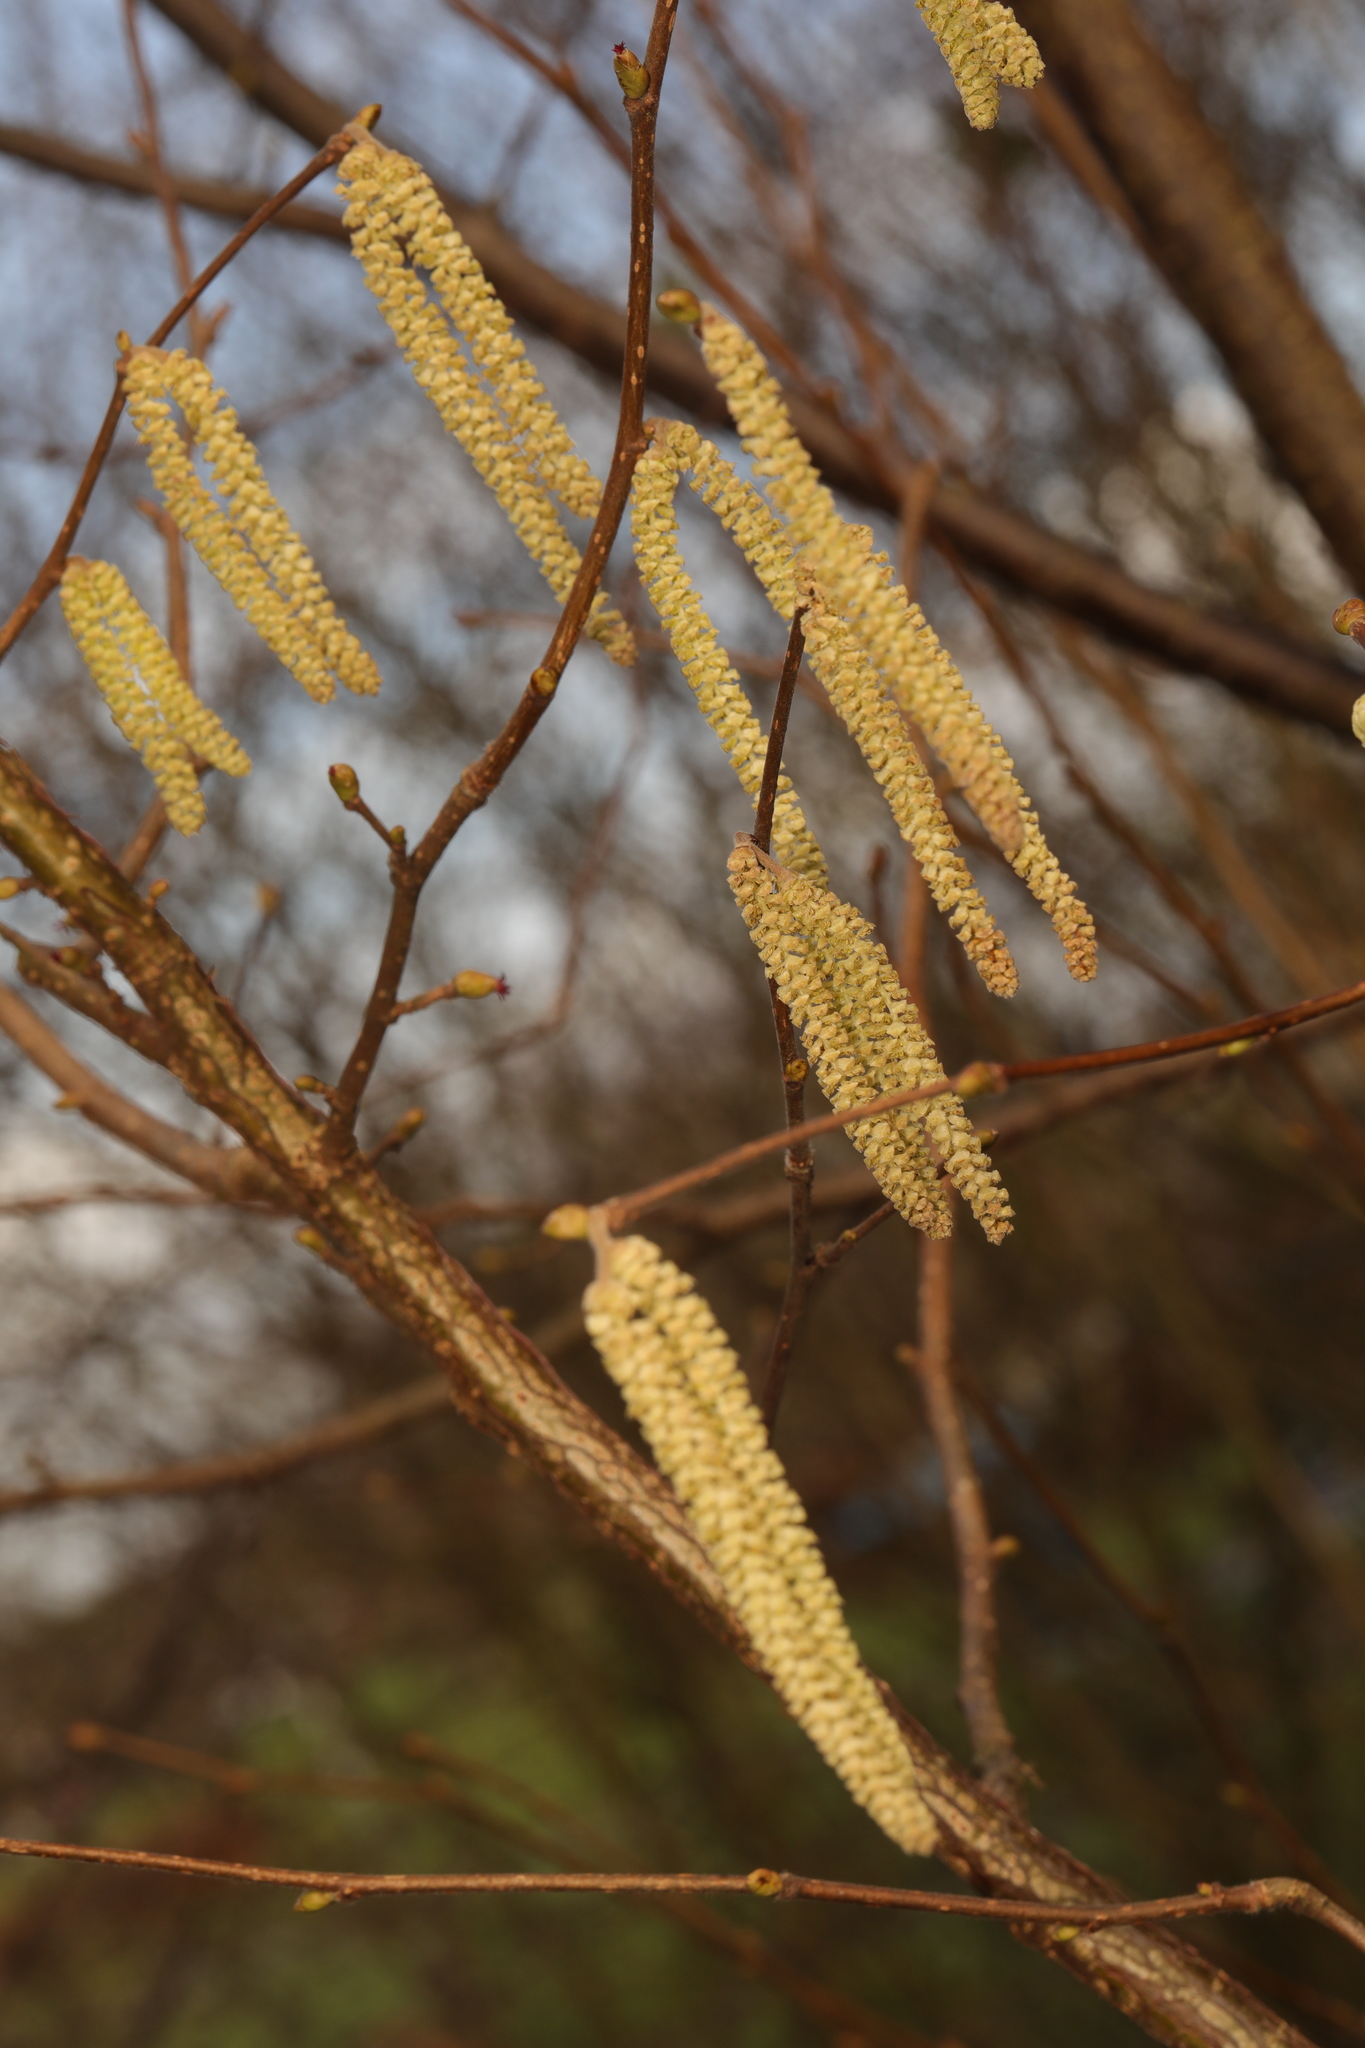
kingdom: Plantae
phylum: Tracheophyta
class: Magnoliopsida
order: Fagales
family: Betulaceae
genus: Corylus
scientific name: Corylus avellana
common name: European hazel
